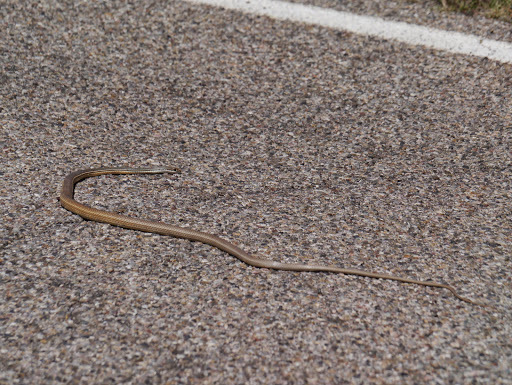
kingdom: Animalia
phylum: Chordata
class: Squamata
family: Colubridae
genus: Masticophis
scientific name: Masticophis bilineatus
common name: Sonoran whipsnake
